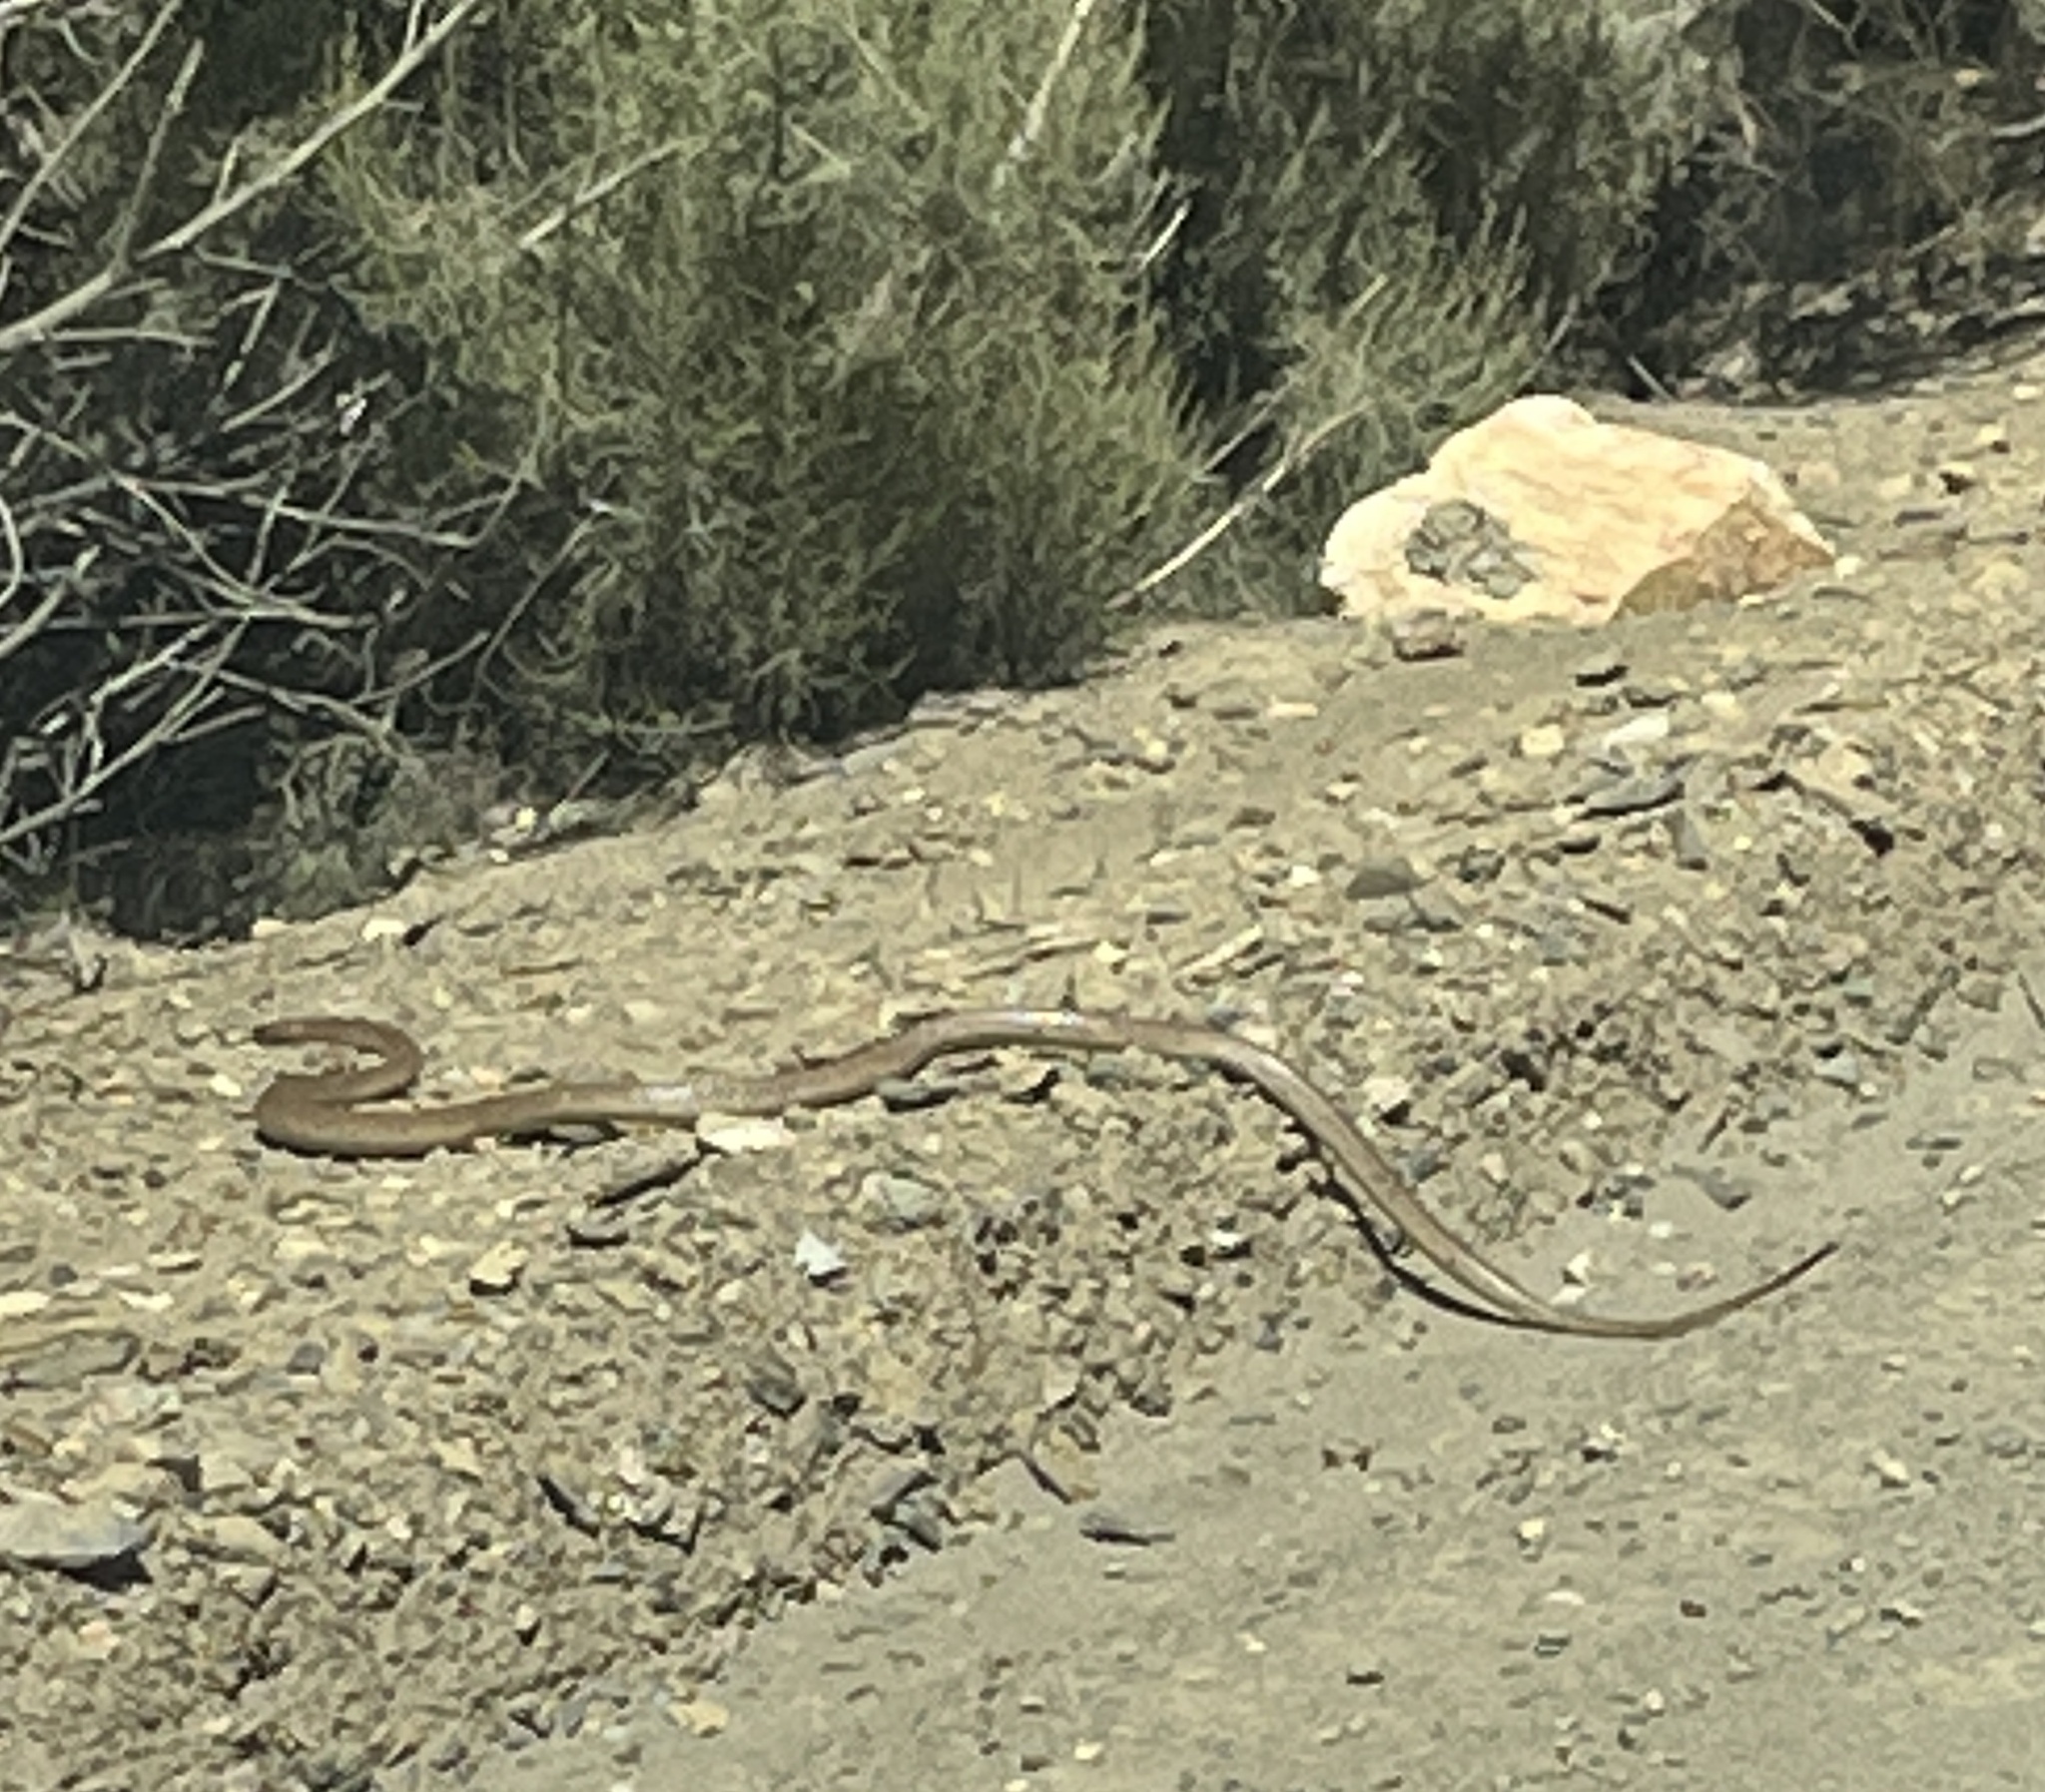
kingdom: Animalia
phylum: Chordata
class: Squamata
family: Elapidae
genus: Naja
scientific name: Naja nivea
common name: Cape cobra
